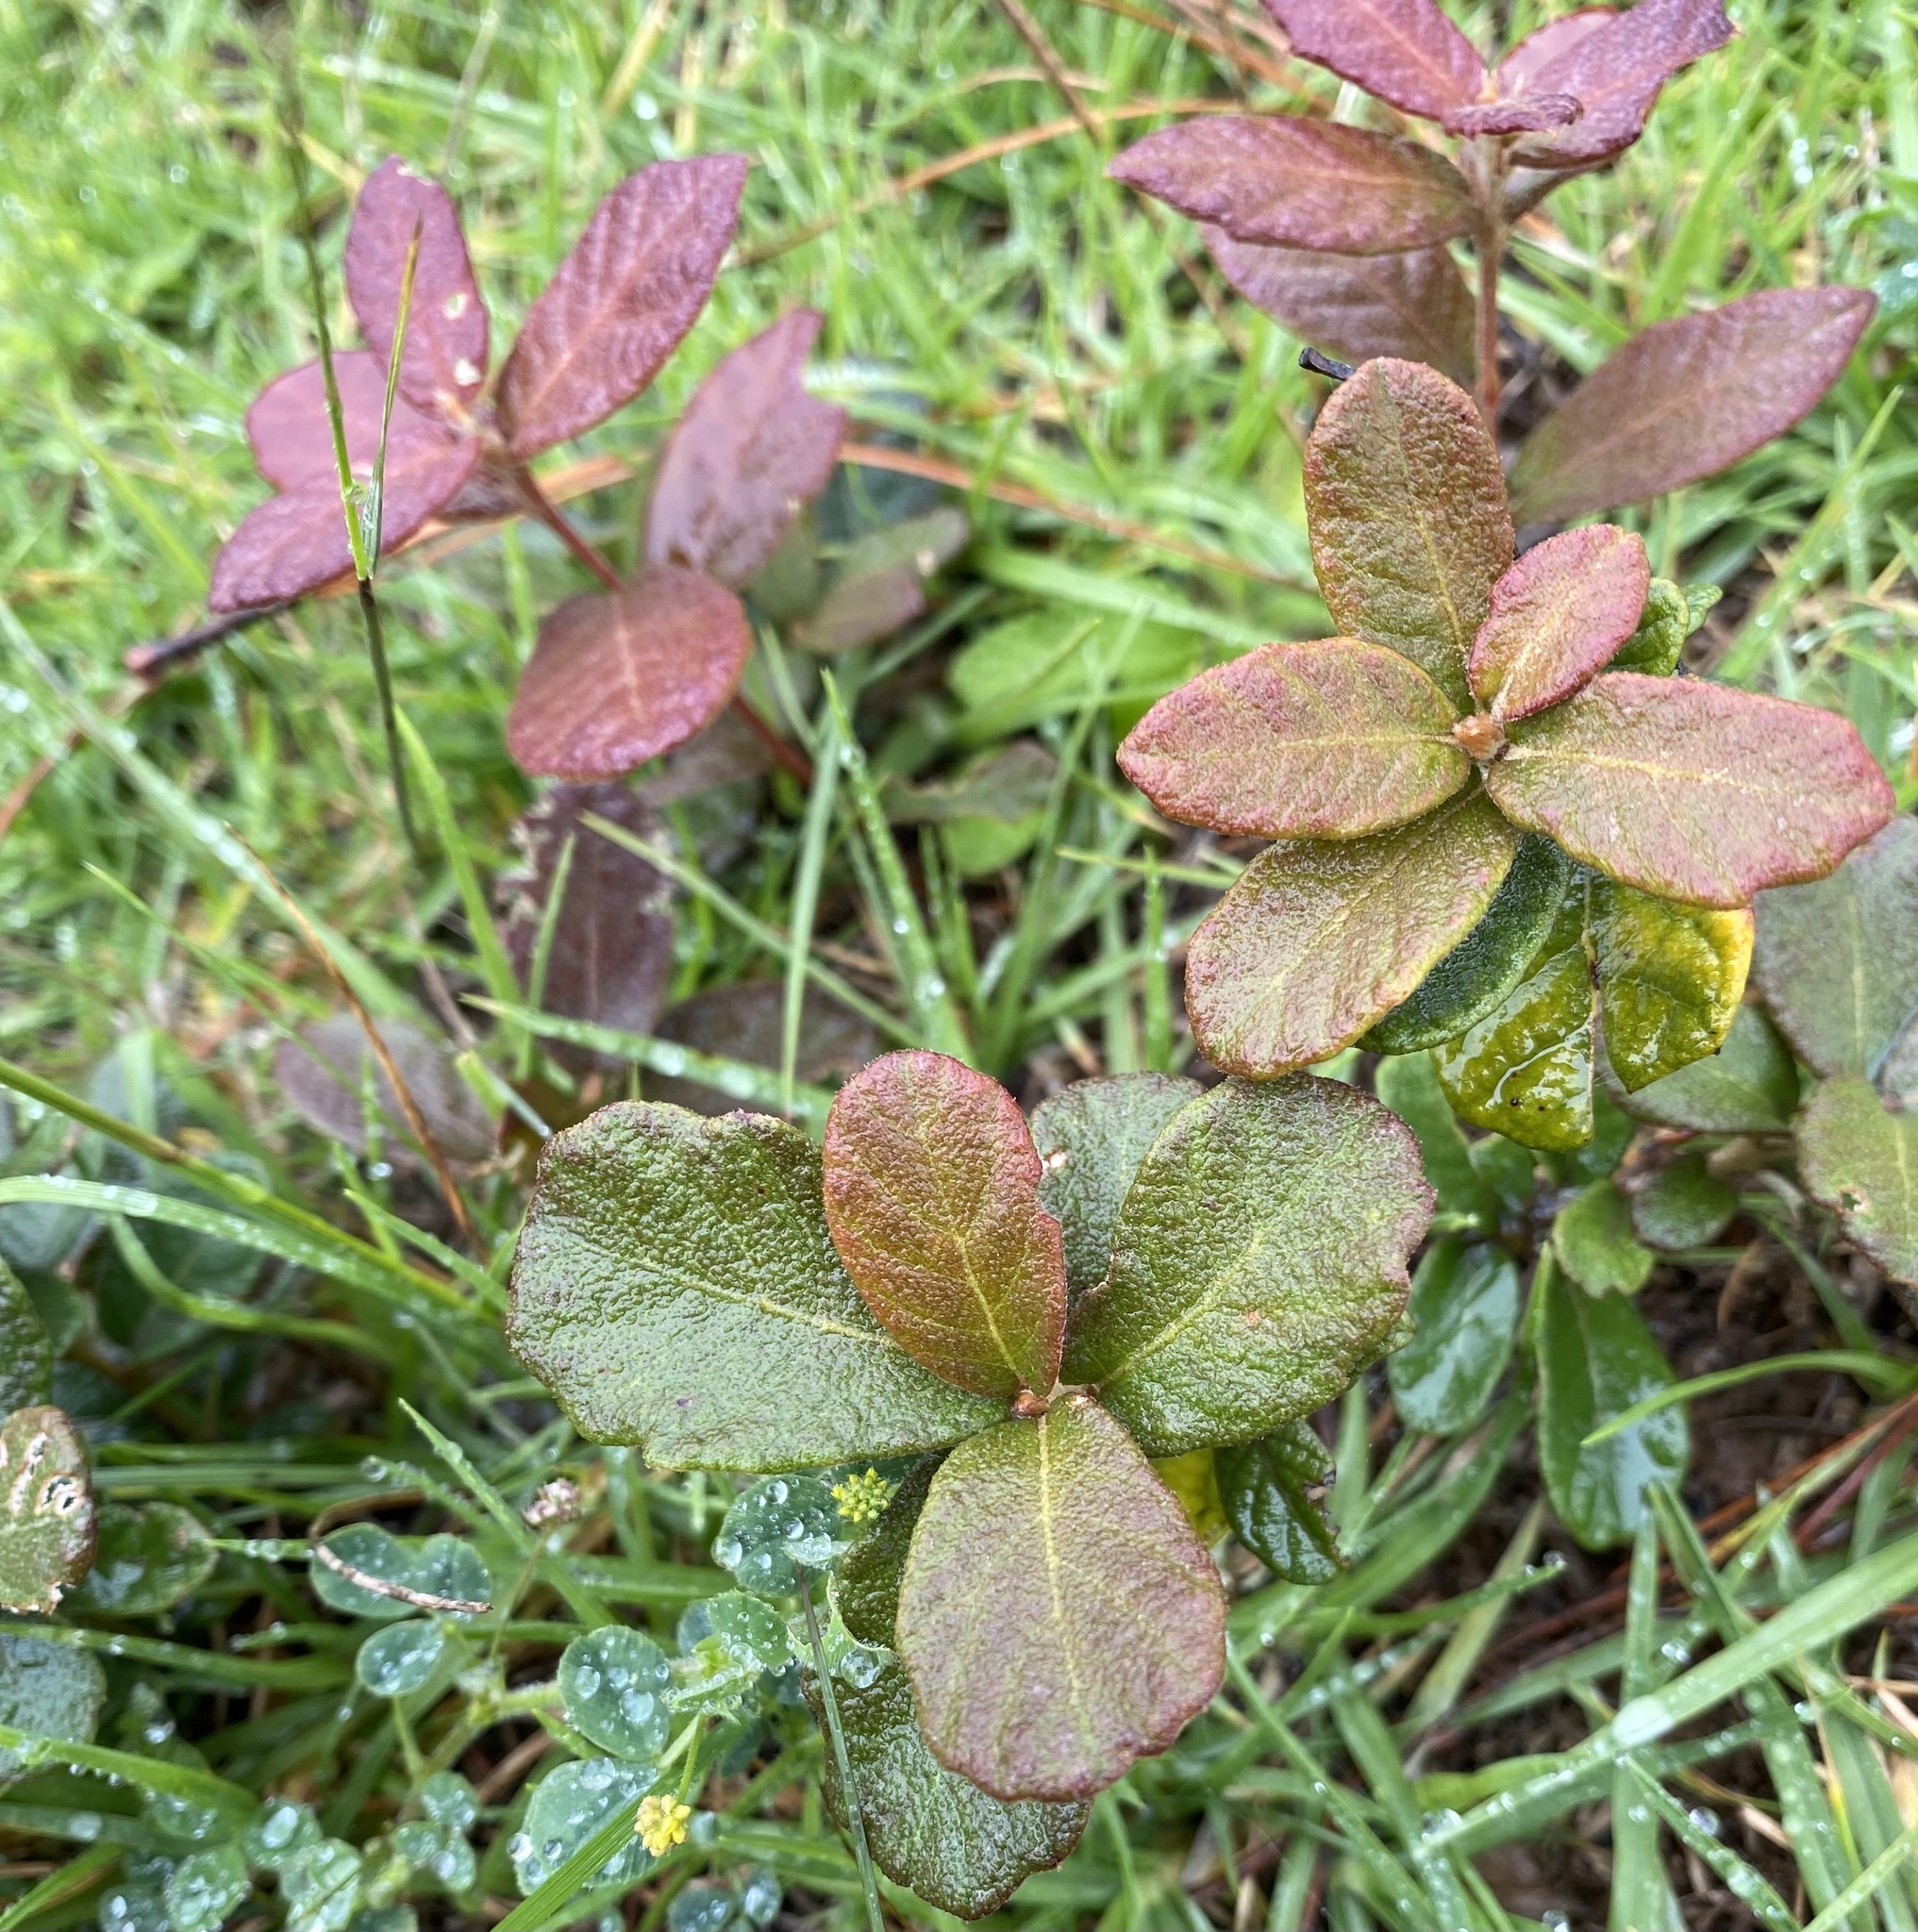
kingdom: Plantae
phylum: Tracheophyta
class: Magnoliopsida
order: Fagales
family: Fagaceae
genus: Quercus
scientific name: Quercus crassifolia
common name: Leather leaf mexican oak
